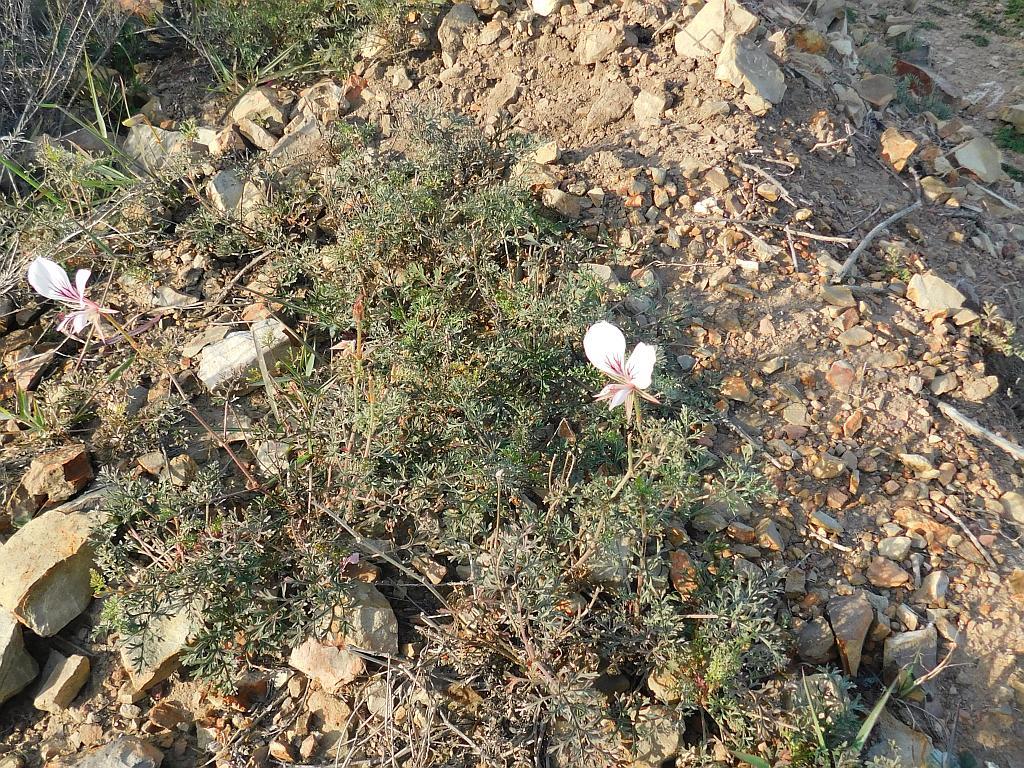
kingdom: Plantae
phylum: Tracheophyta
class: Magnoliopsida
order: Geraniales
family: Geraniaceae
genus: Pelargonium
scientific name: Pelargonium caucalifolium
